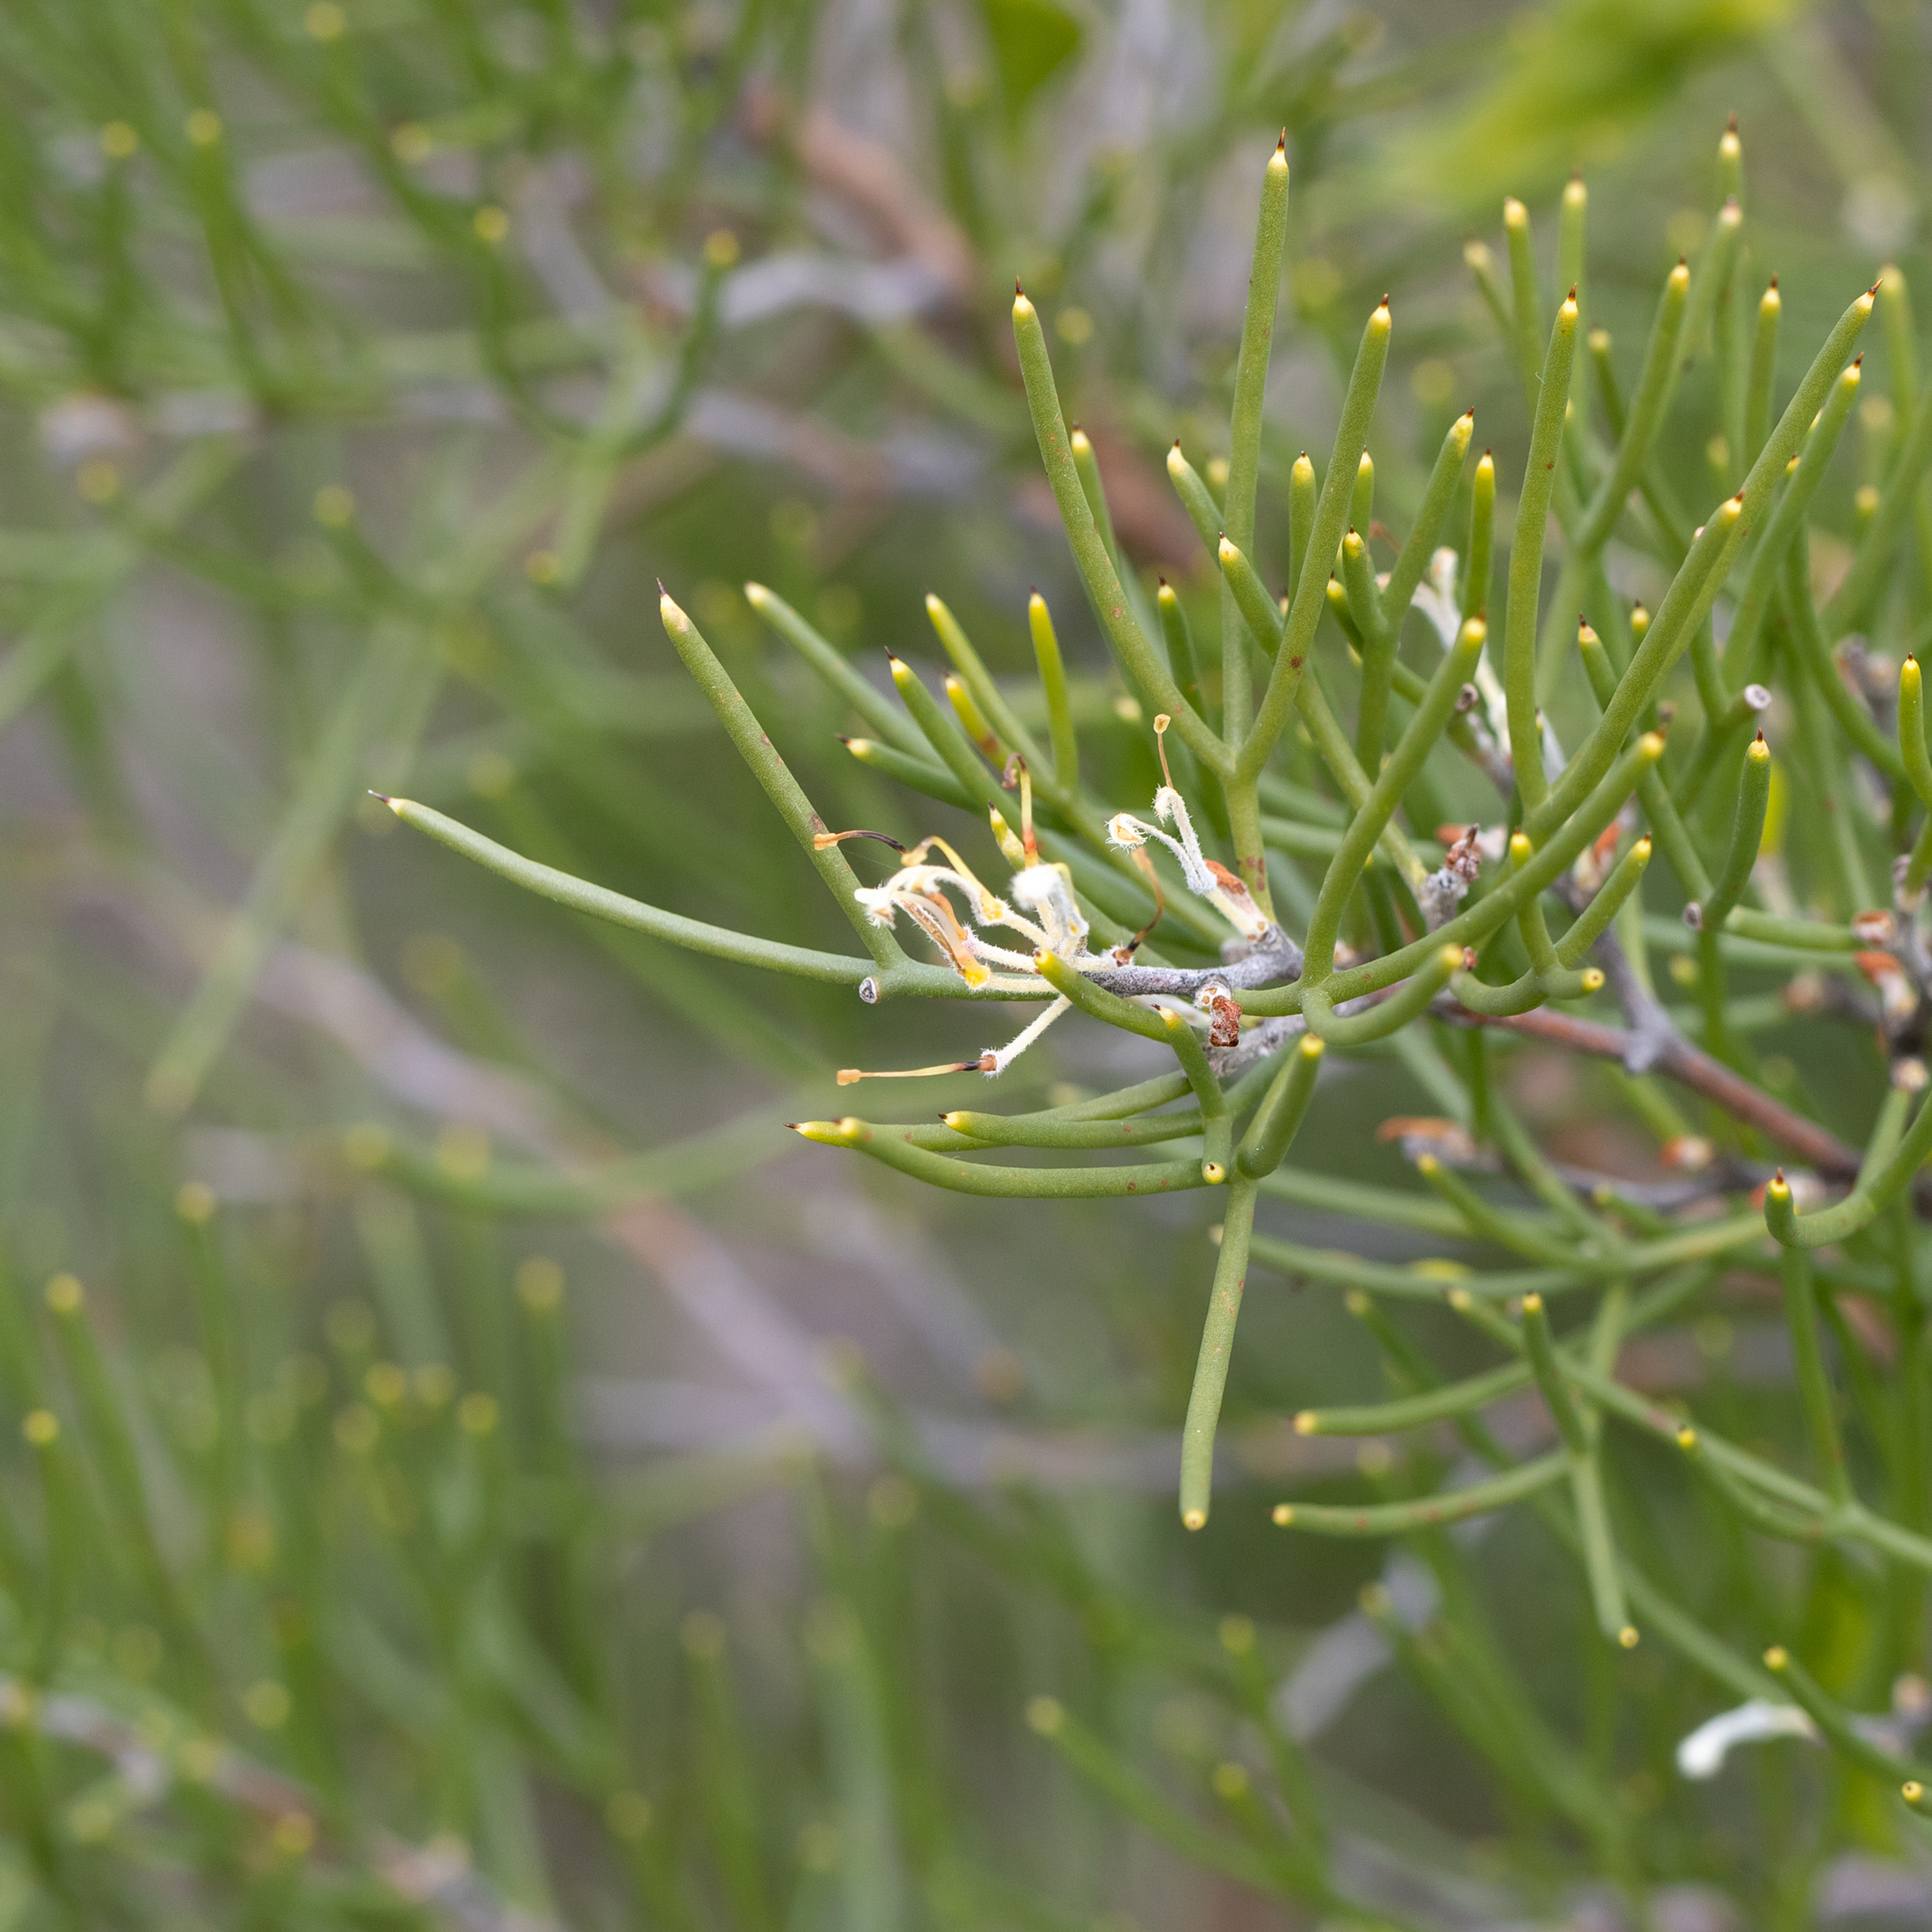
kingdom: Plantae
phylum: Tracheophyta
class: Magnoliopsida
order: Proteales
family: Proteaceae
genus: Hakea
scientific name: Hakea trifurcata
